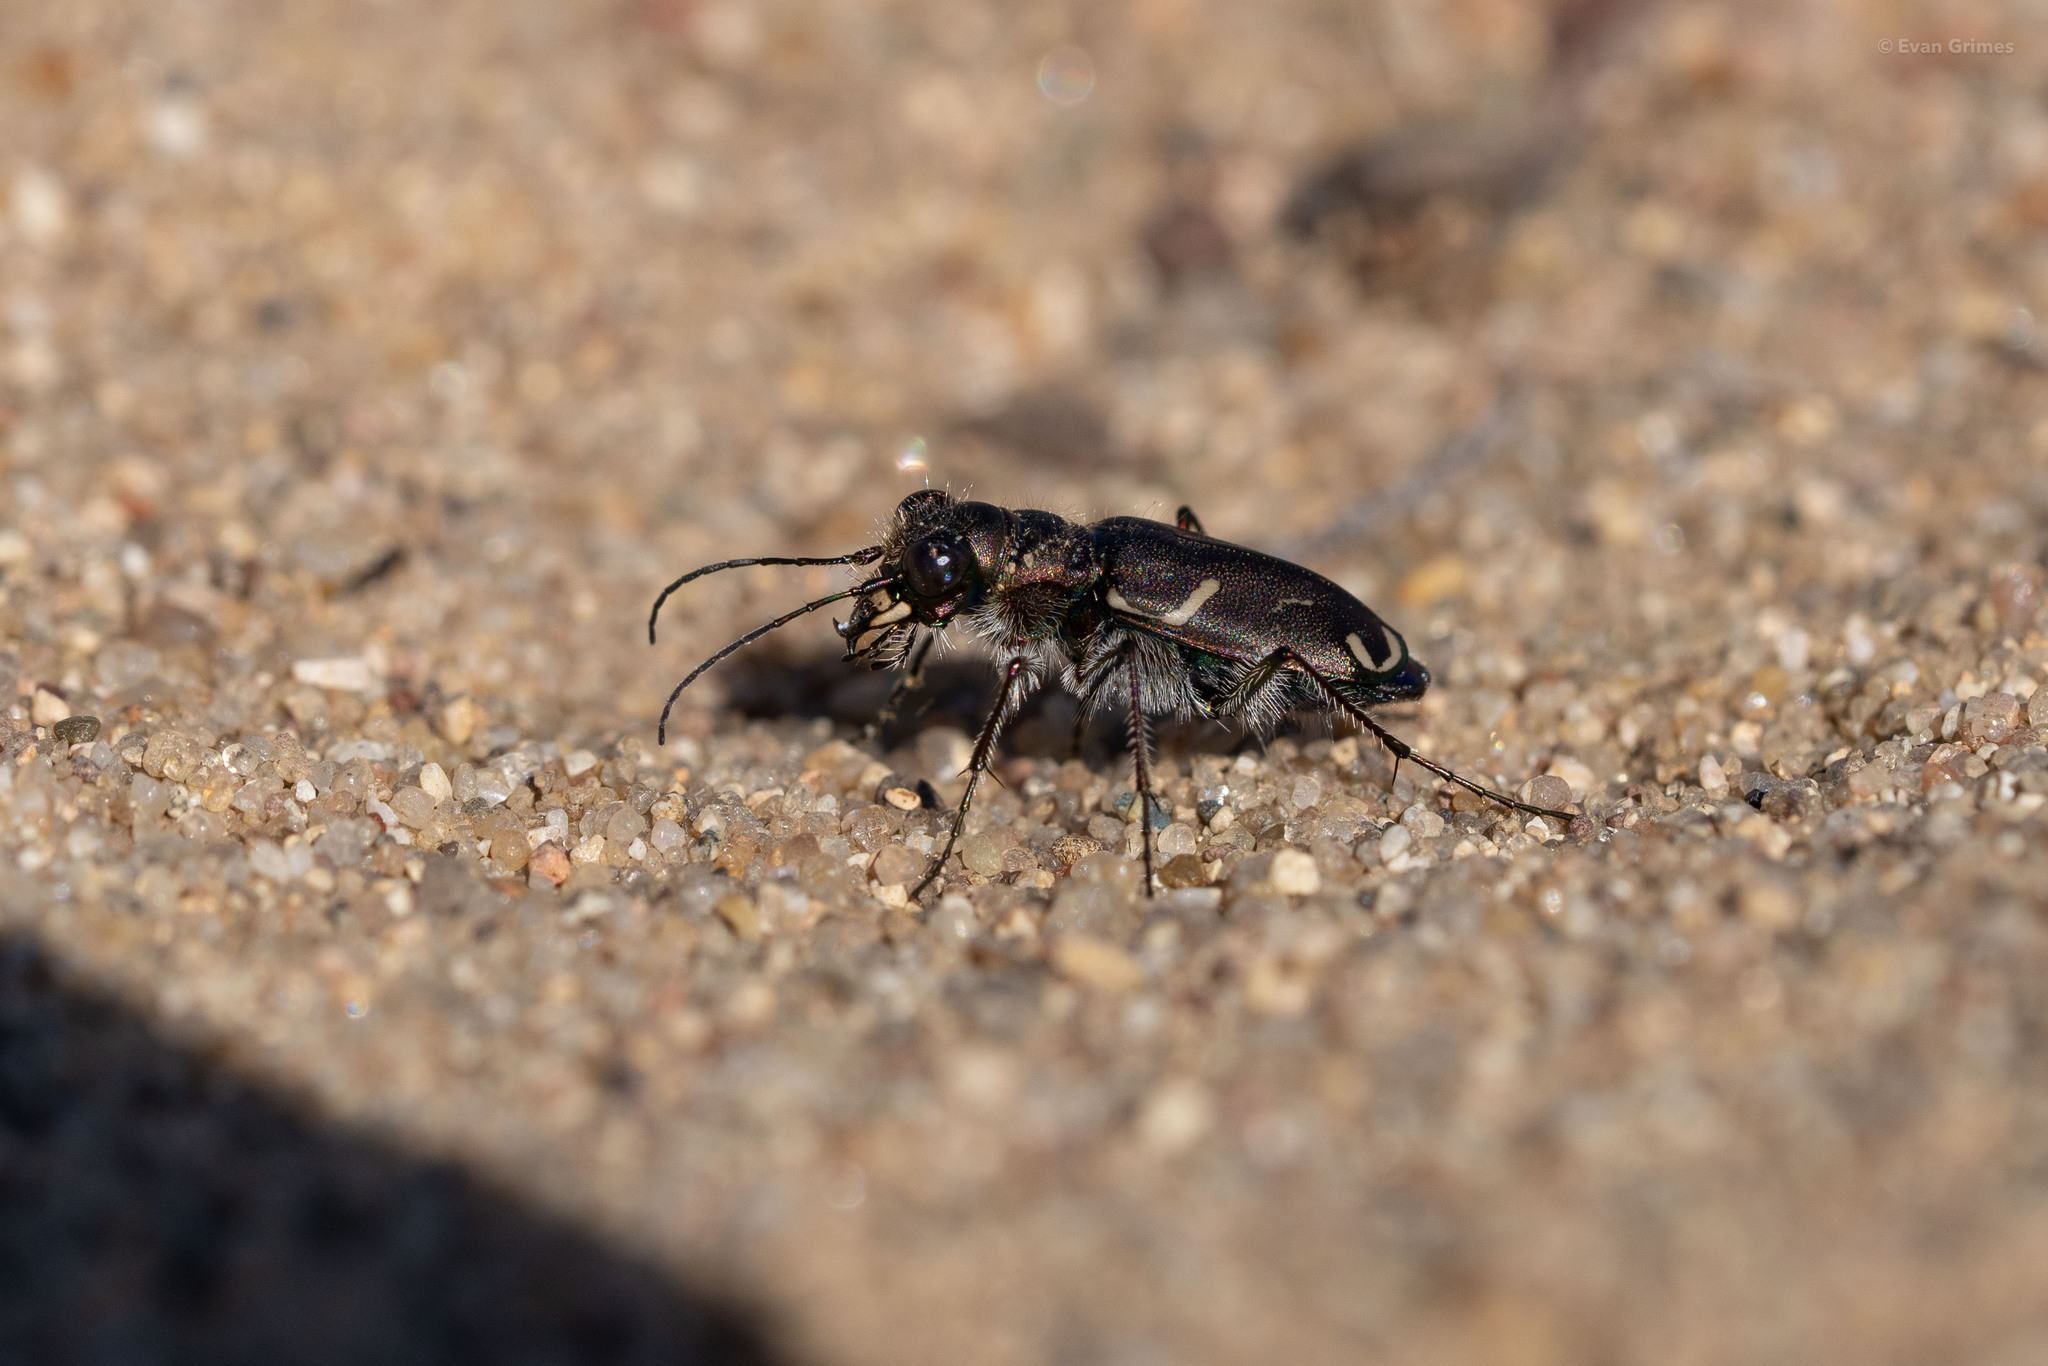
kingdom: Animalia
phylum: Arthropoda
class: Insecta
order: Coleoptera
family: Carabidae
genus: Cicindela
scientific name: Cicindela tranquebarica
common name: Oblique-lined tiger beetle
